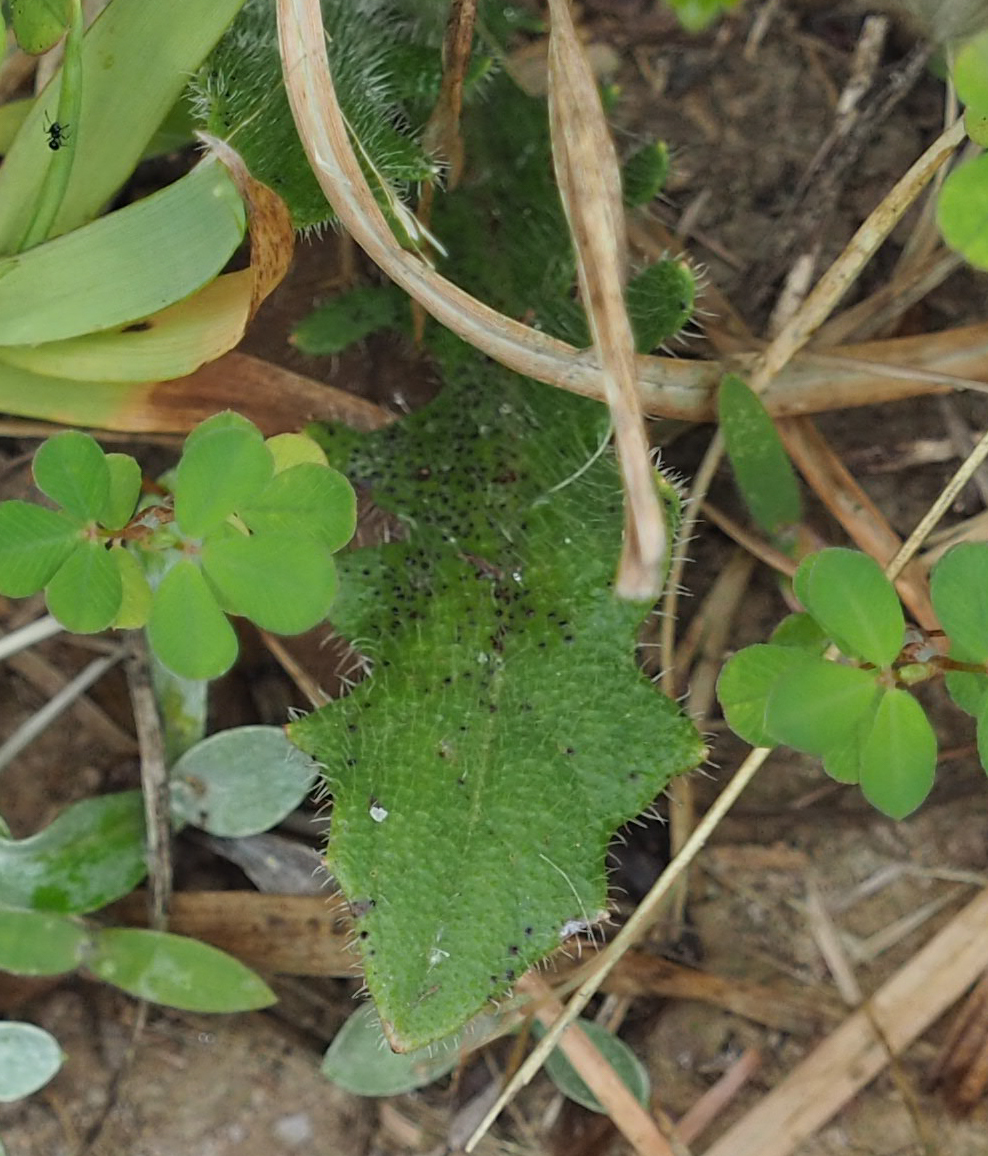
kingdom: Plantae
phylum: Tracheophyta
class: Magnoliopsida
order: Asterales
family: Asteraceae
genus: Hypochaeris
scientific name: Hypochaeris radicata
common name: Flatweed
